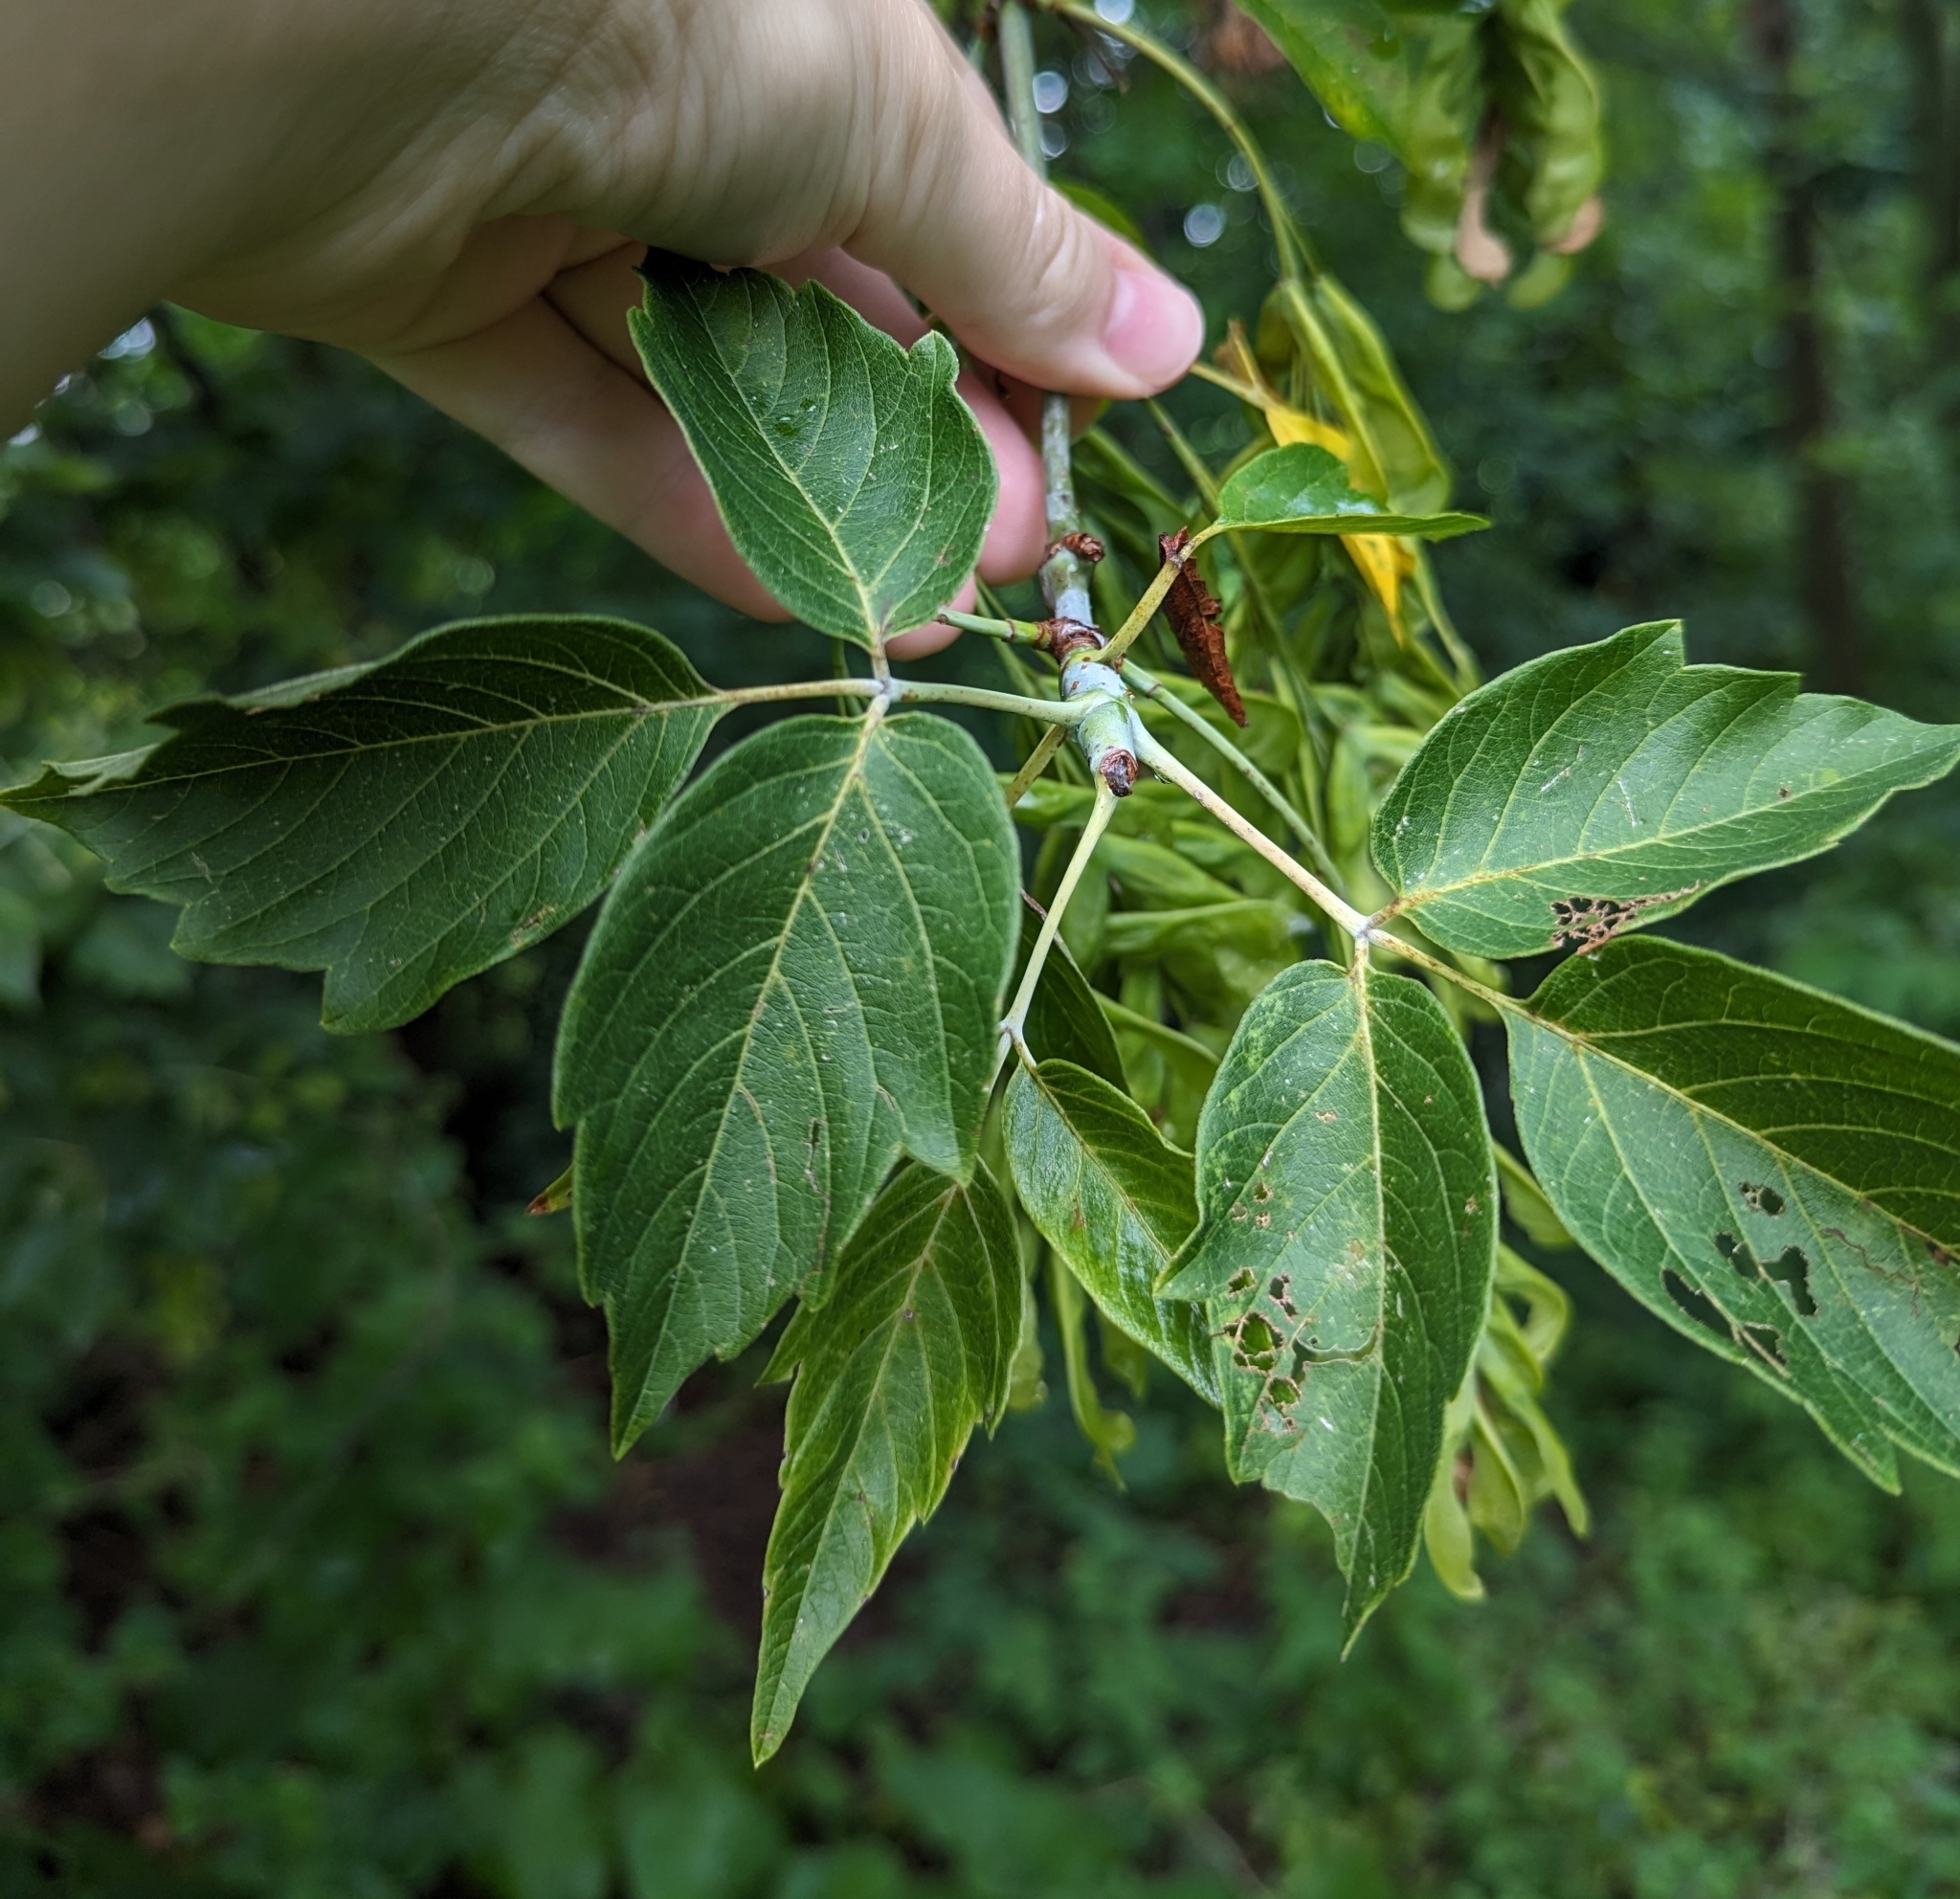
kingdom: Plantae
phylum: Tracheophyta
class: Magnoliopsida
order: Sapindales
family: Sapindaceae
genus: Acer
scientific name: Acer negundo
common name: Ashleaf maple
